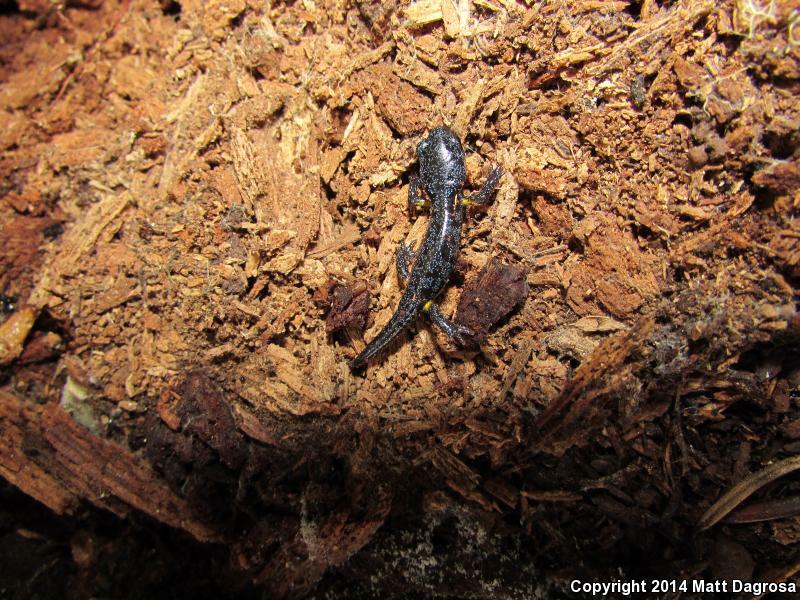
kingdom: Animalia
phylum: Chordata
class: Amphibia
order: Caudata
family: Plethodontidae
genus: Ensatina
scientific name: Ensatina eschscholtzii
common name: Ensatina
